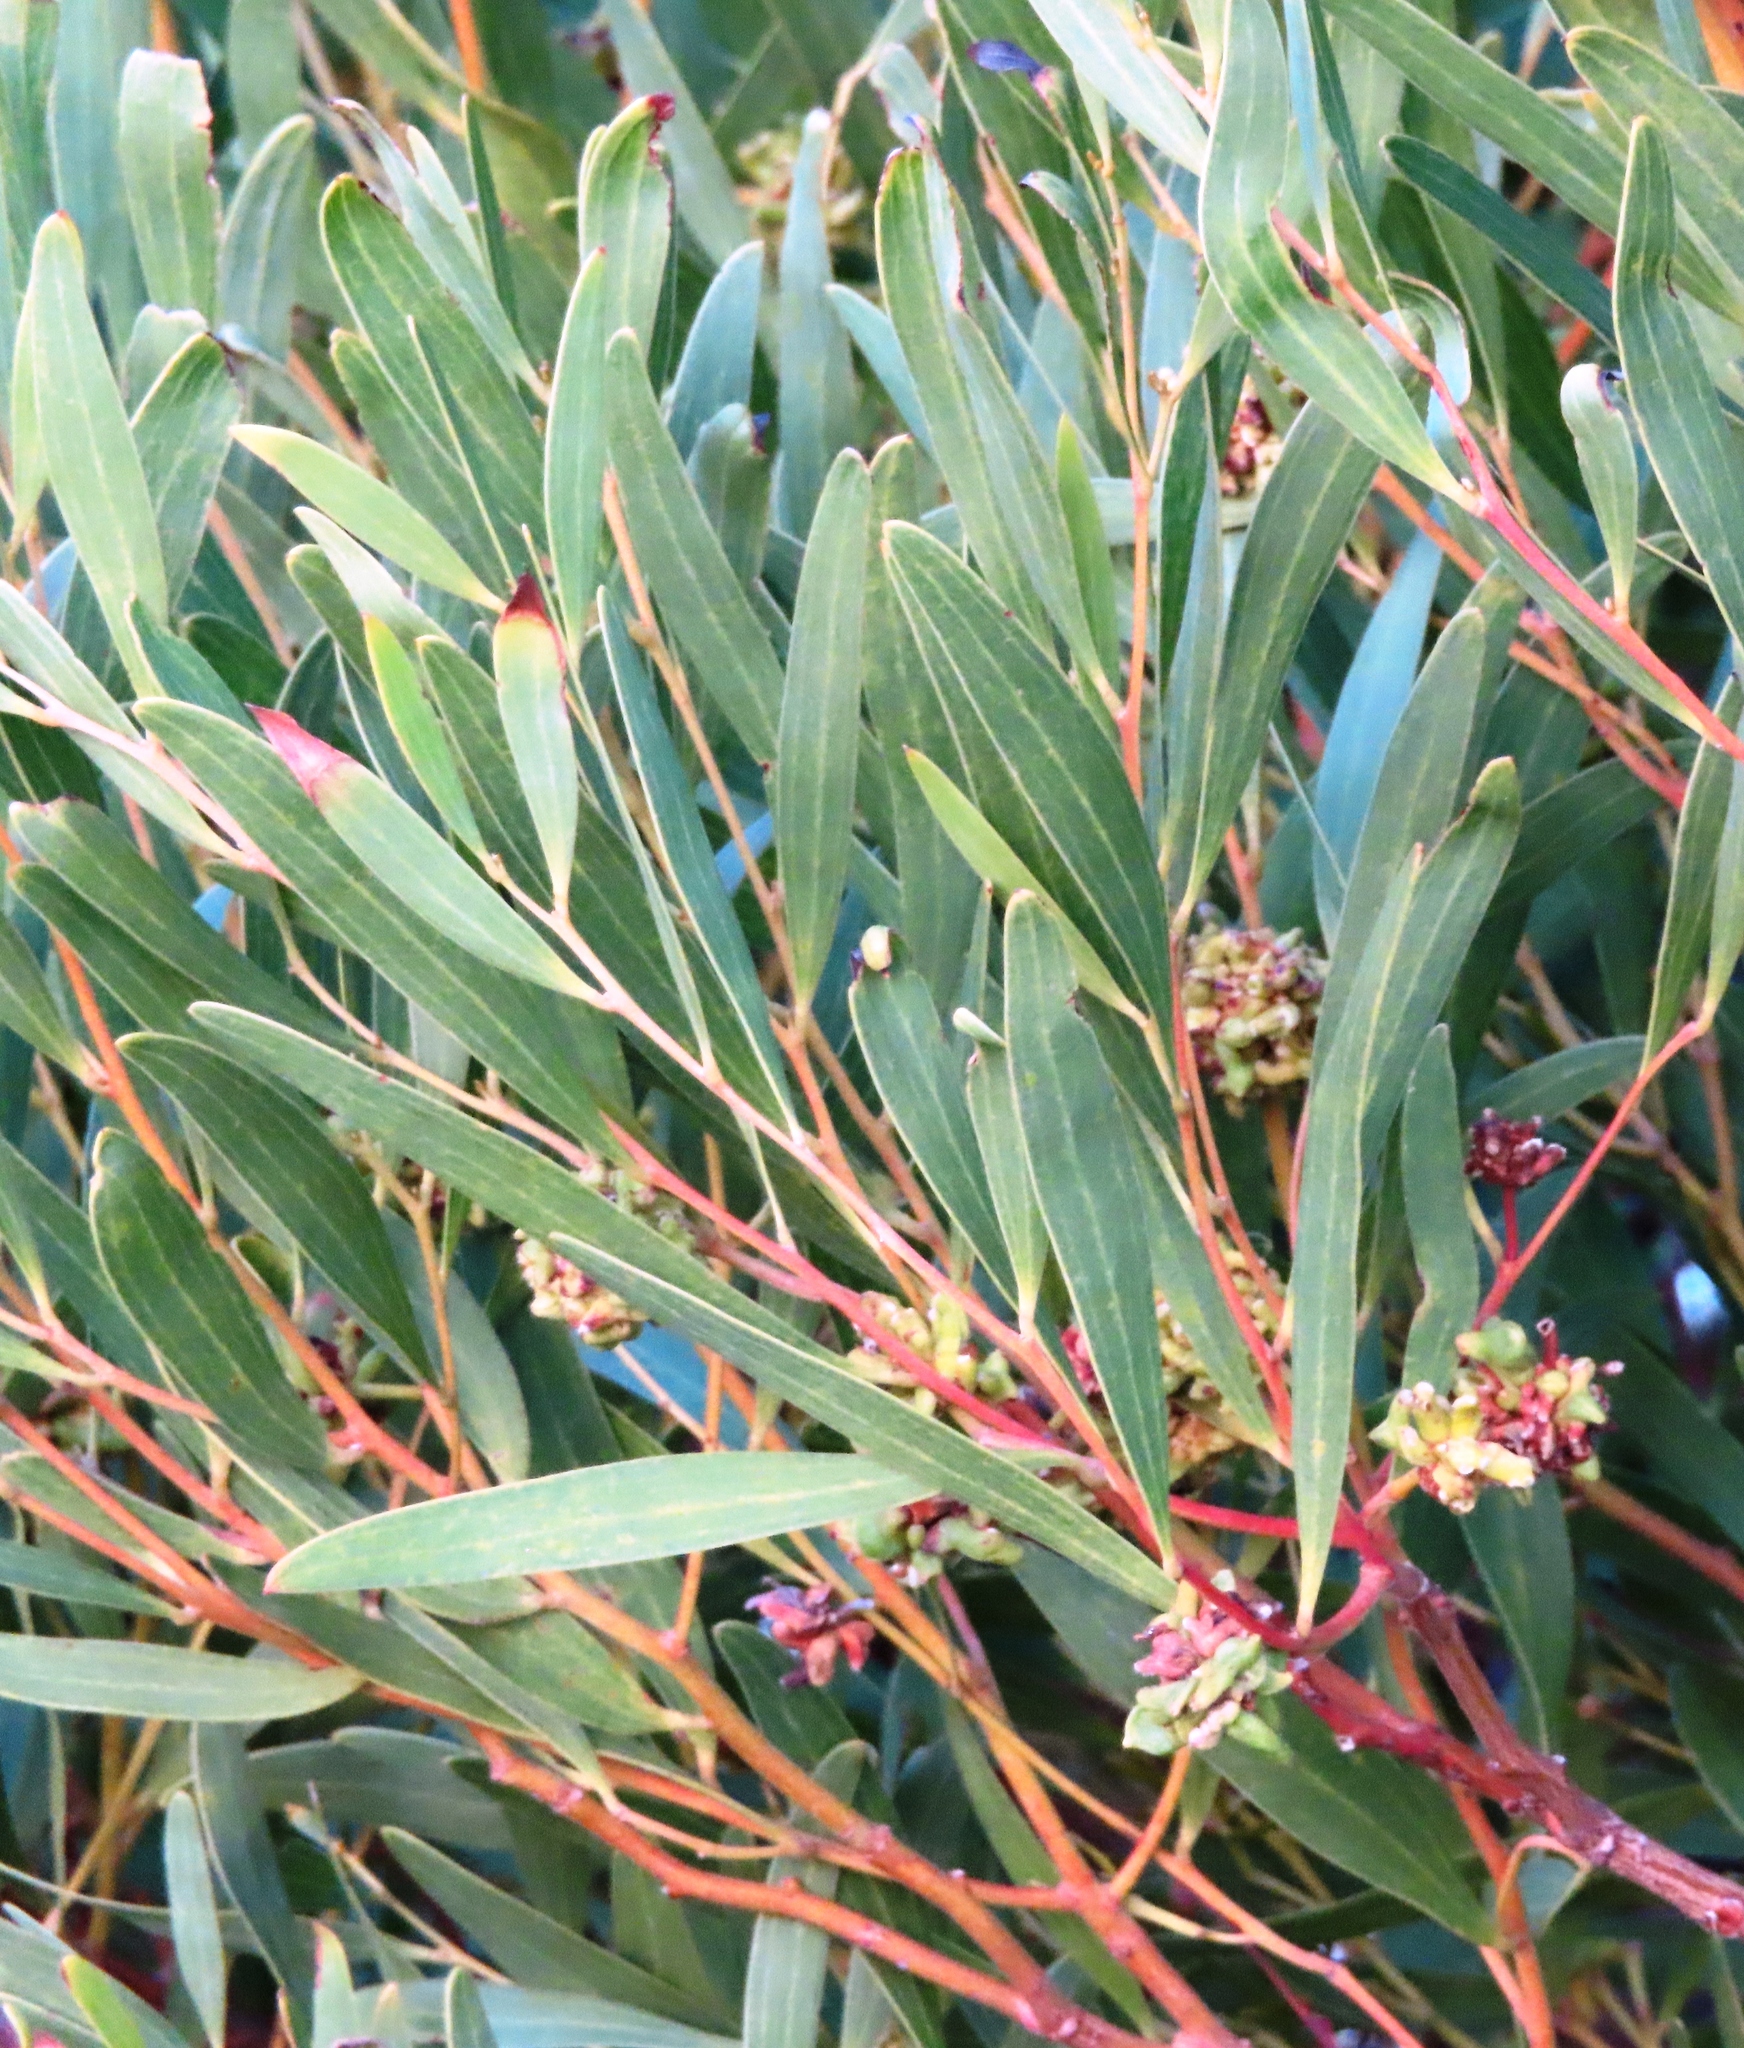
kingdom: Plantae
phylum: Tracheophyta
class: Magnoliopsida
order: Fabales
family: Fabaceae
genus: Acacia
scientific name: Acacia cyclops
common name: Coastal wattle
